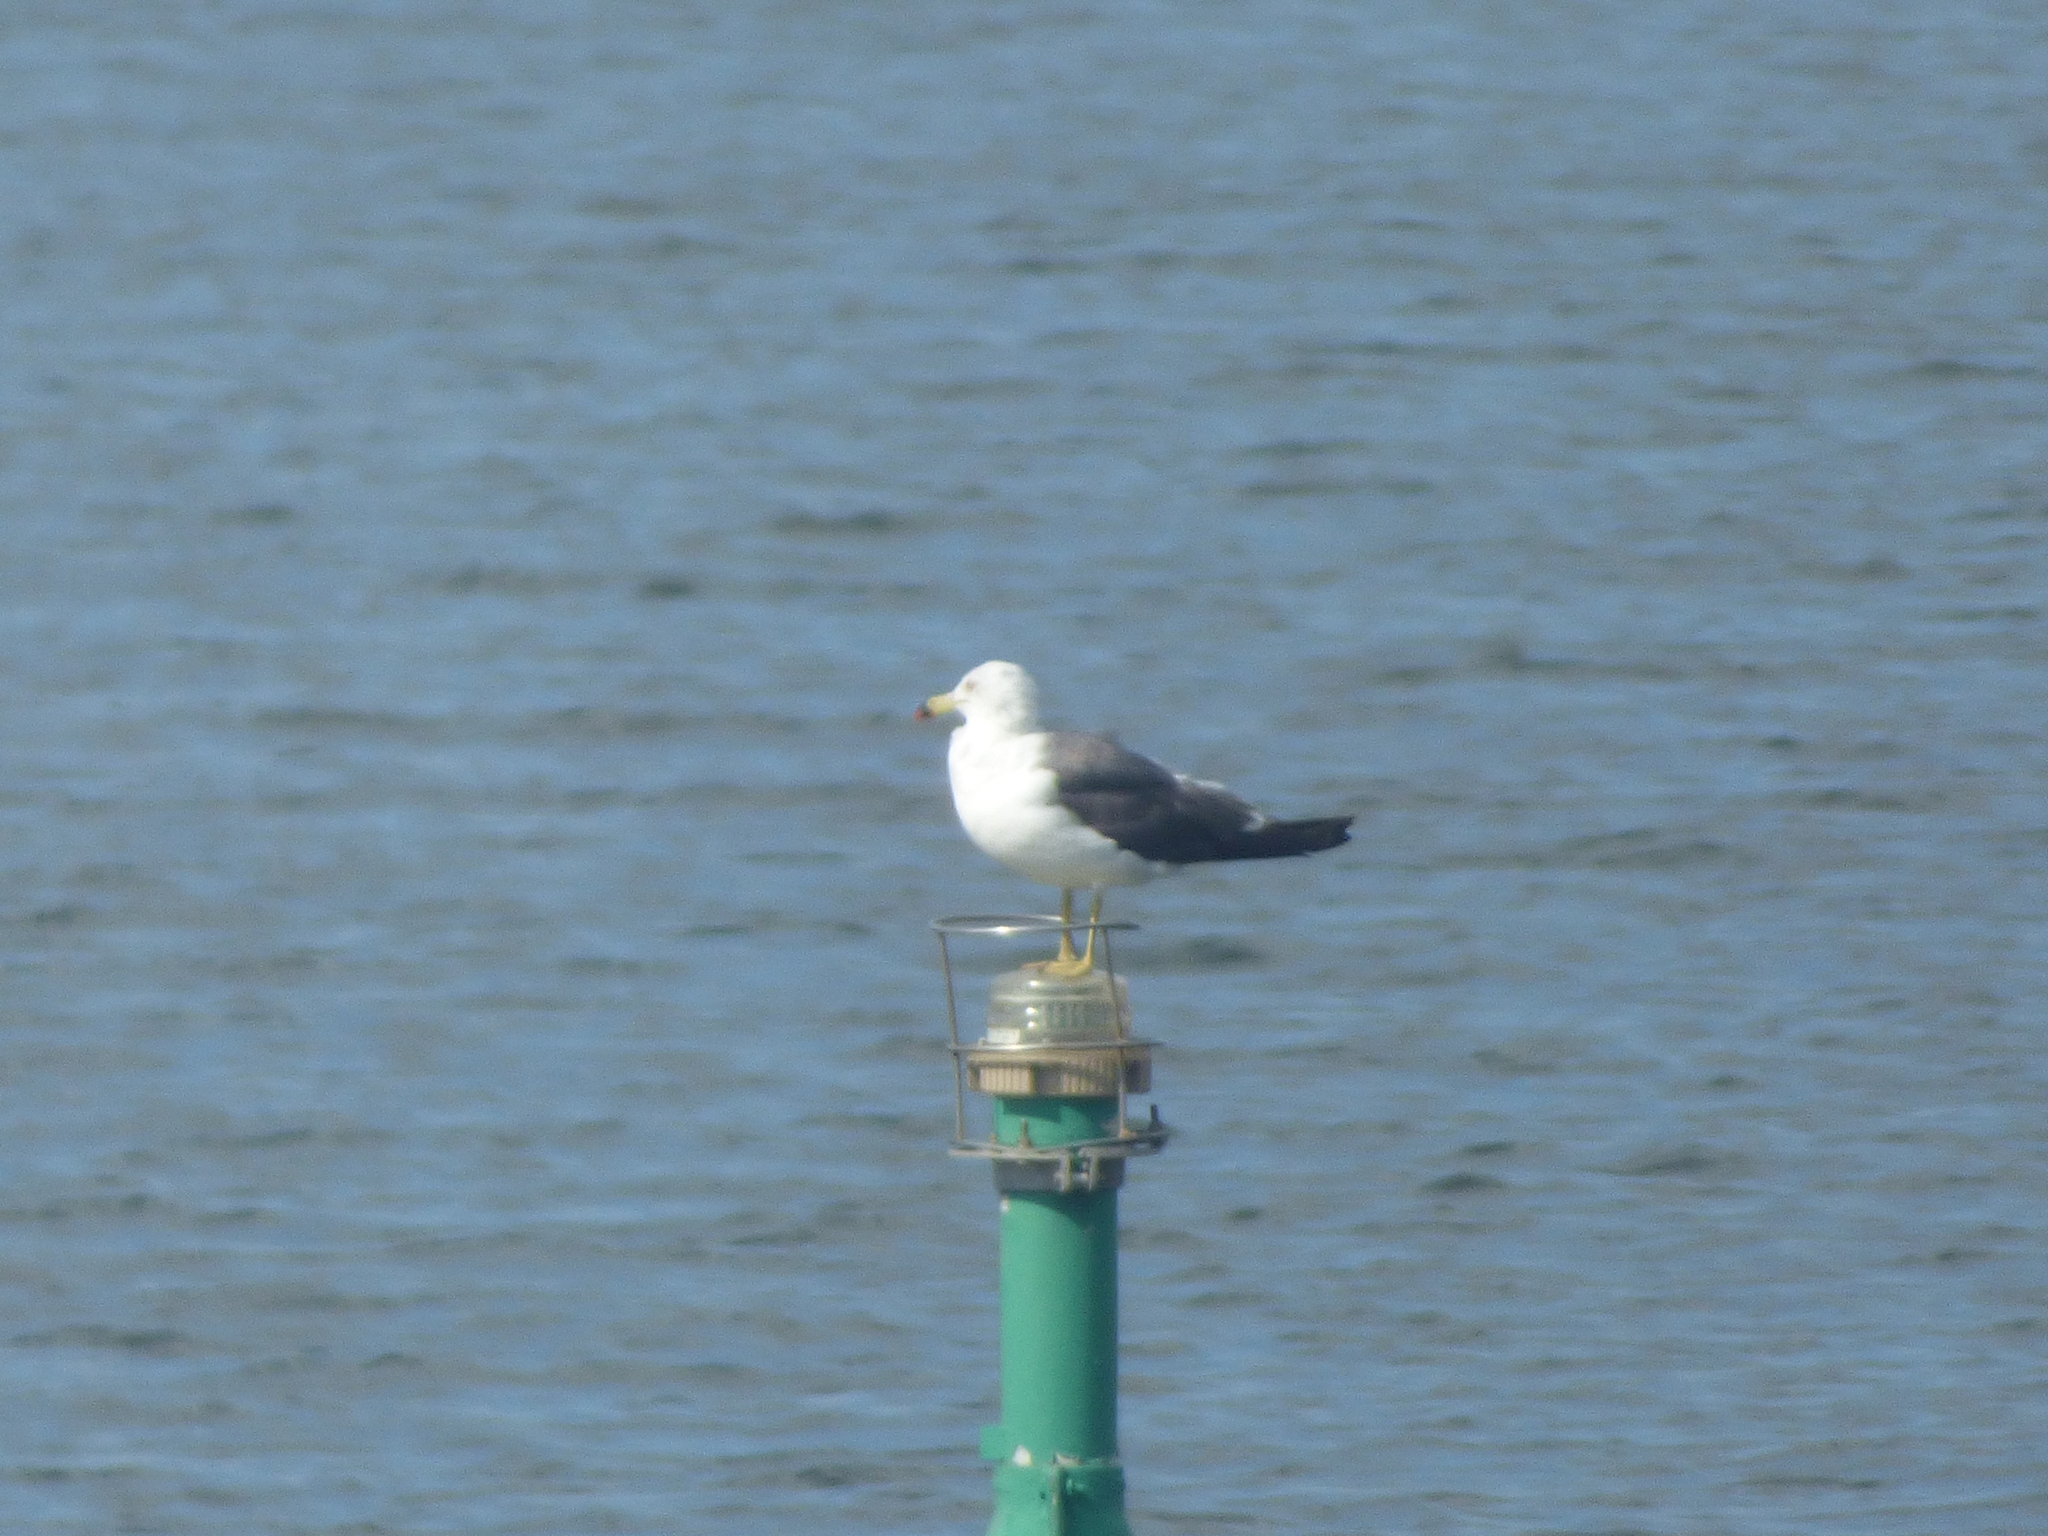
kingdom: Animalia
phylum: Chordata
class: Aves
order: Charadriiformes
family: Laridae
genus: Larus
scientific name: Larus crassirostris
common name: Black-tailed gull
